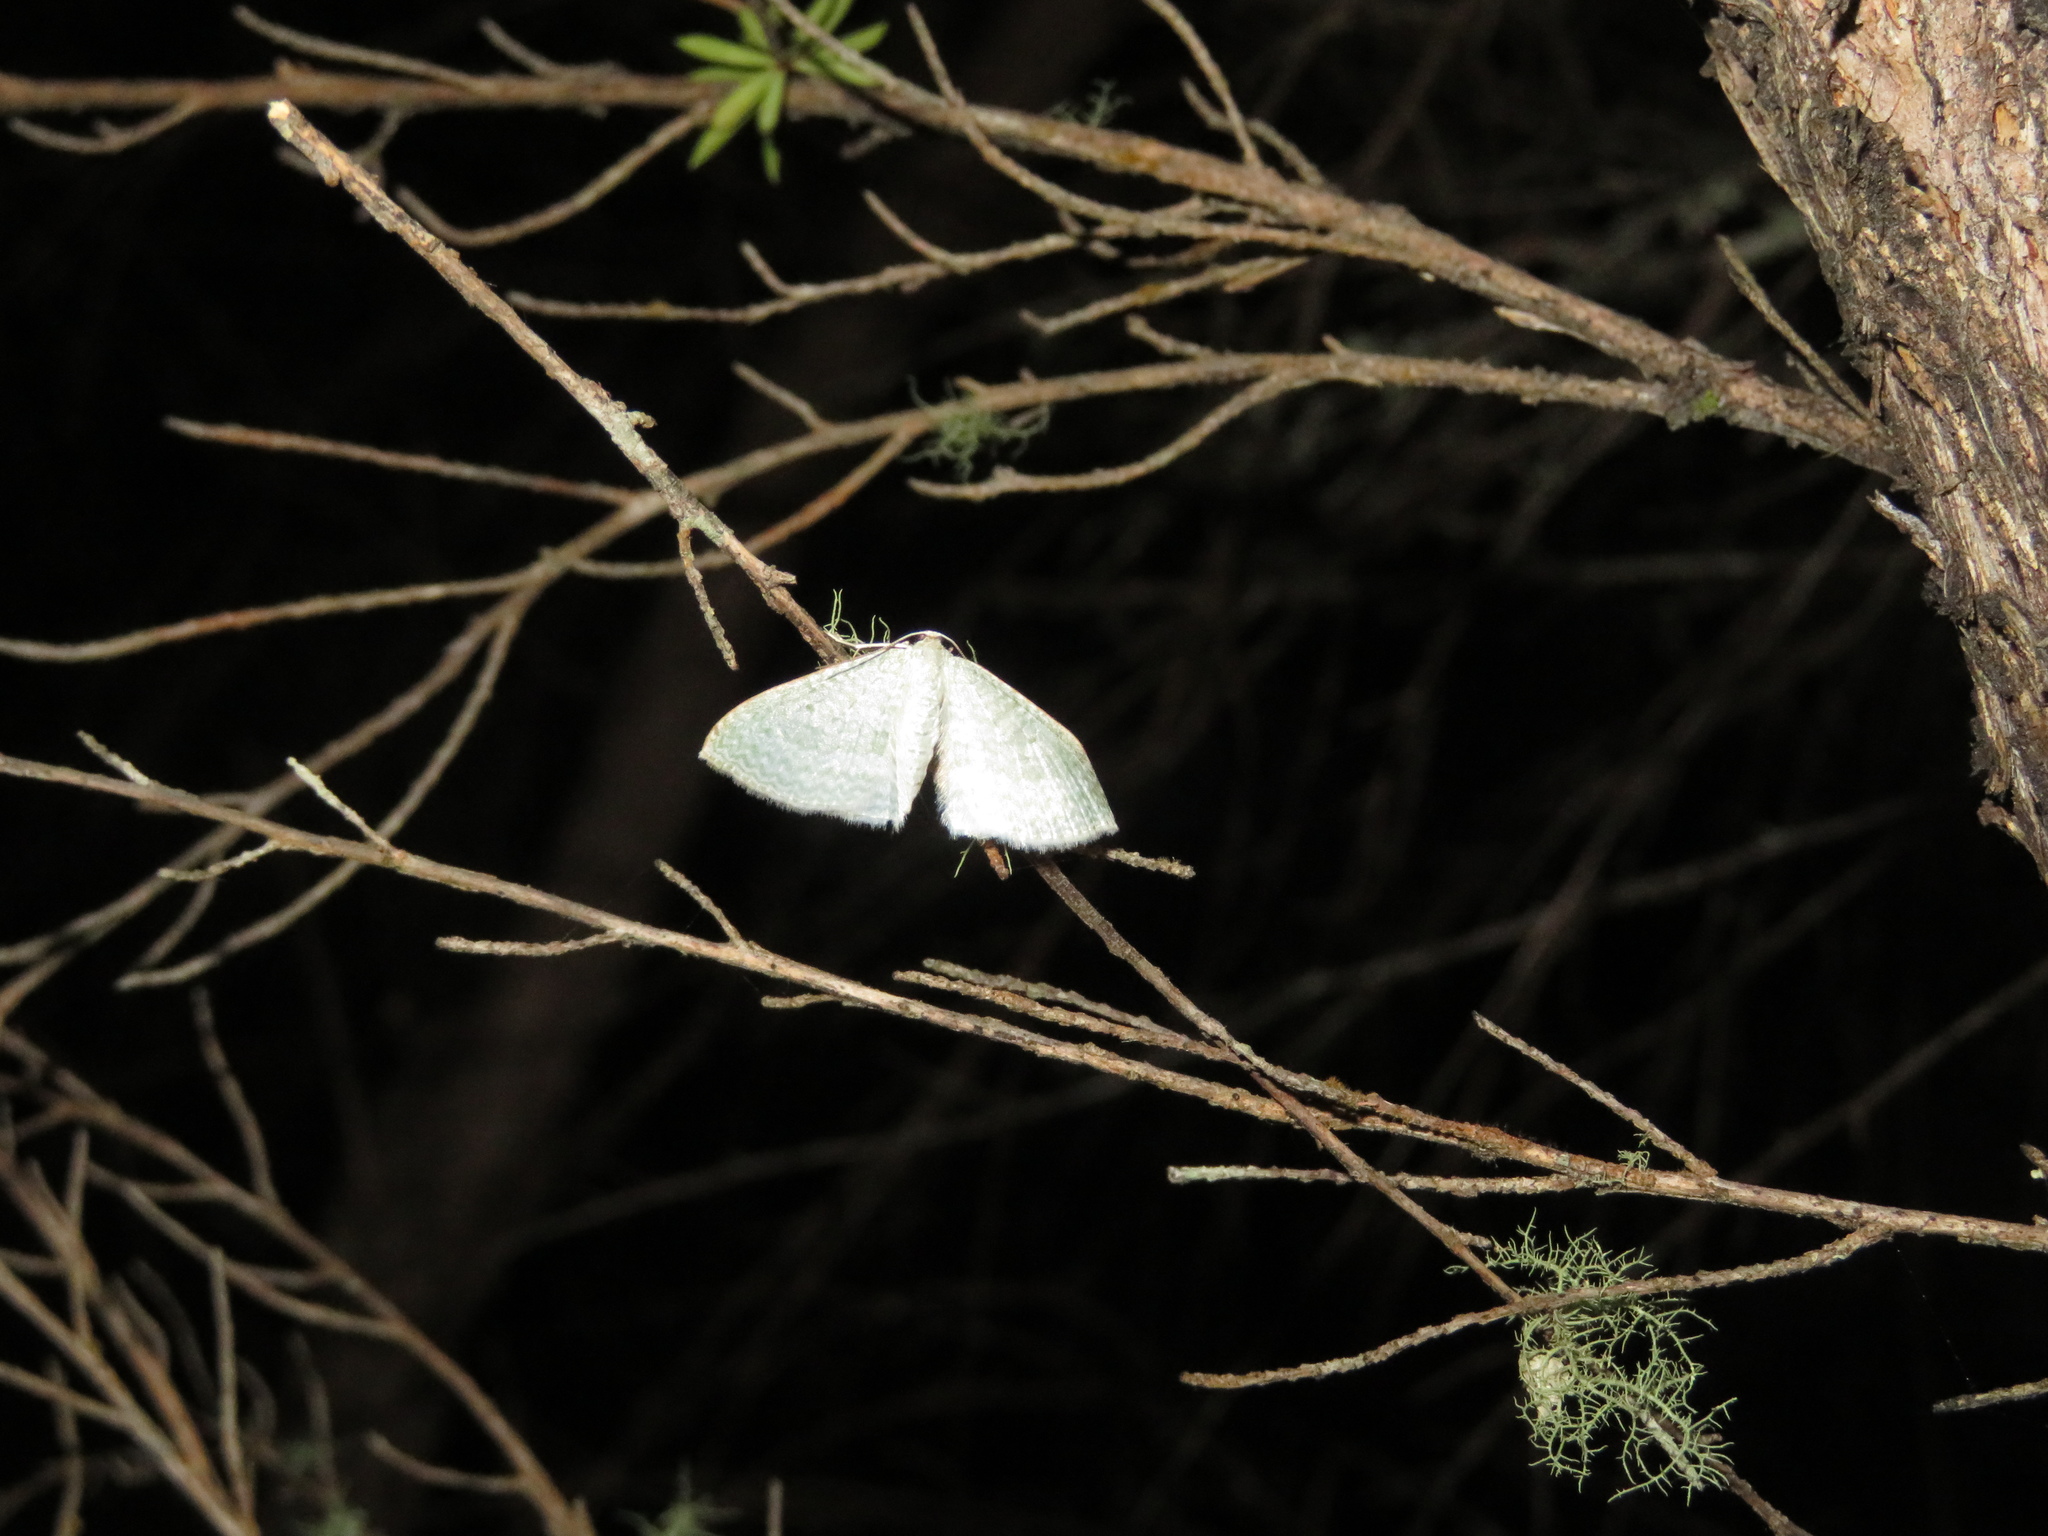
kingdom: Animalia
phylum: Arthropoda
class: Insecta
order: Lepidoptera
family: Geometridae
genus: Poecilasthena
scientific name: Poecilasthena pulchraria
